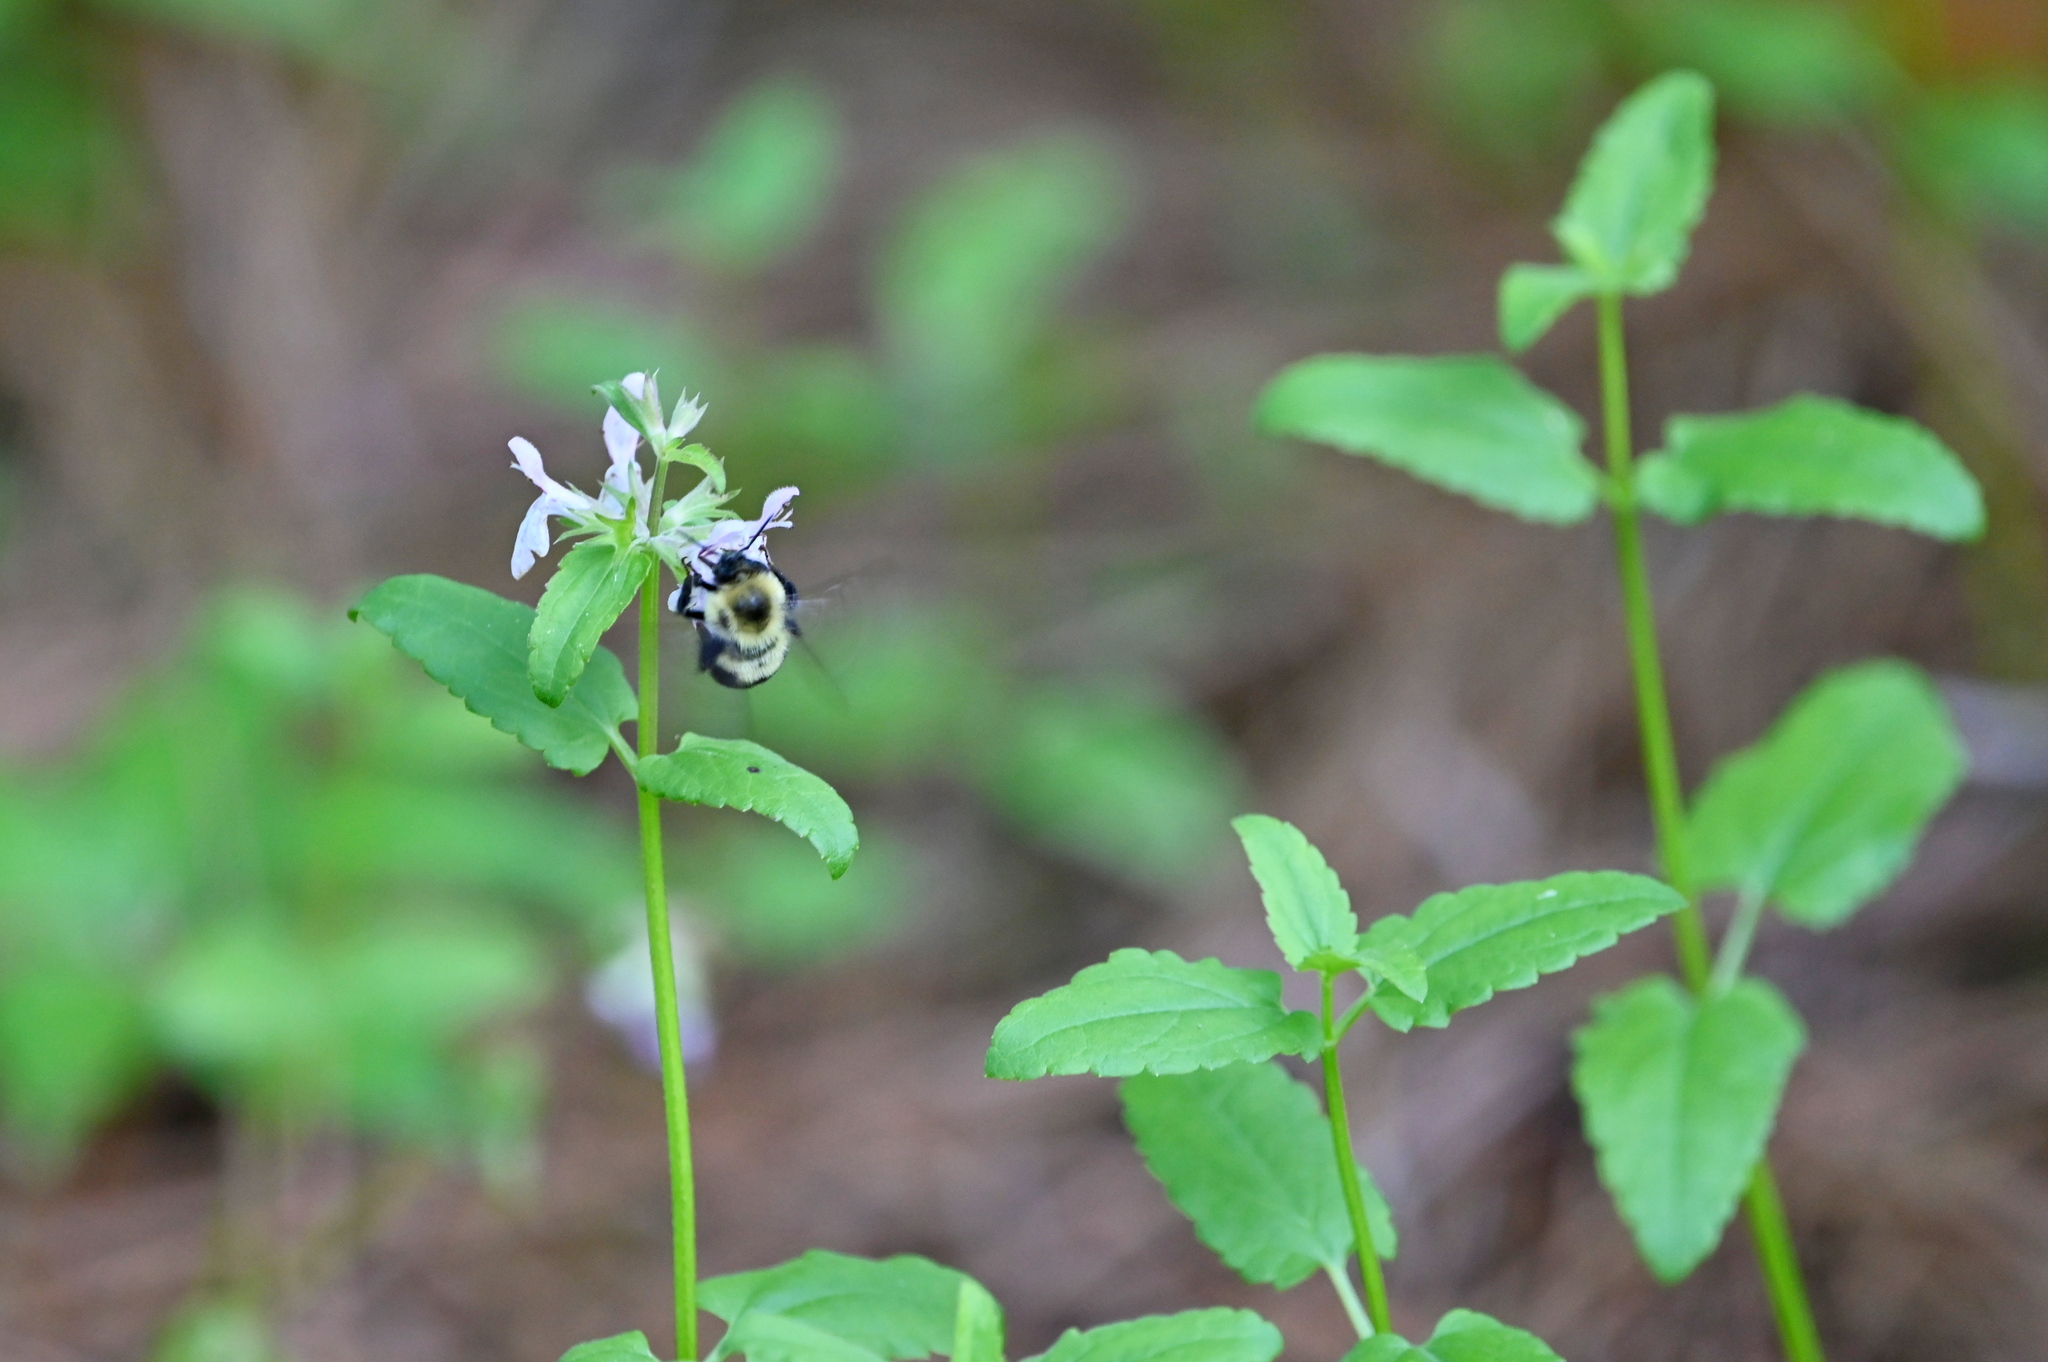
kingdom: Animalia
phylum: Arthropoda
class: Insecta
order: Hymenoptera
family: Apidae
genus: Bombus
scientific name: Bombus bimaculatus
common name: Two-spotted bumble bee
